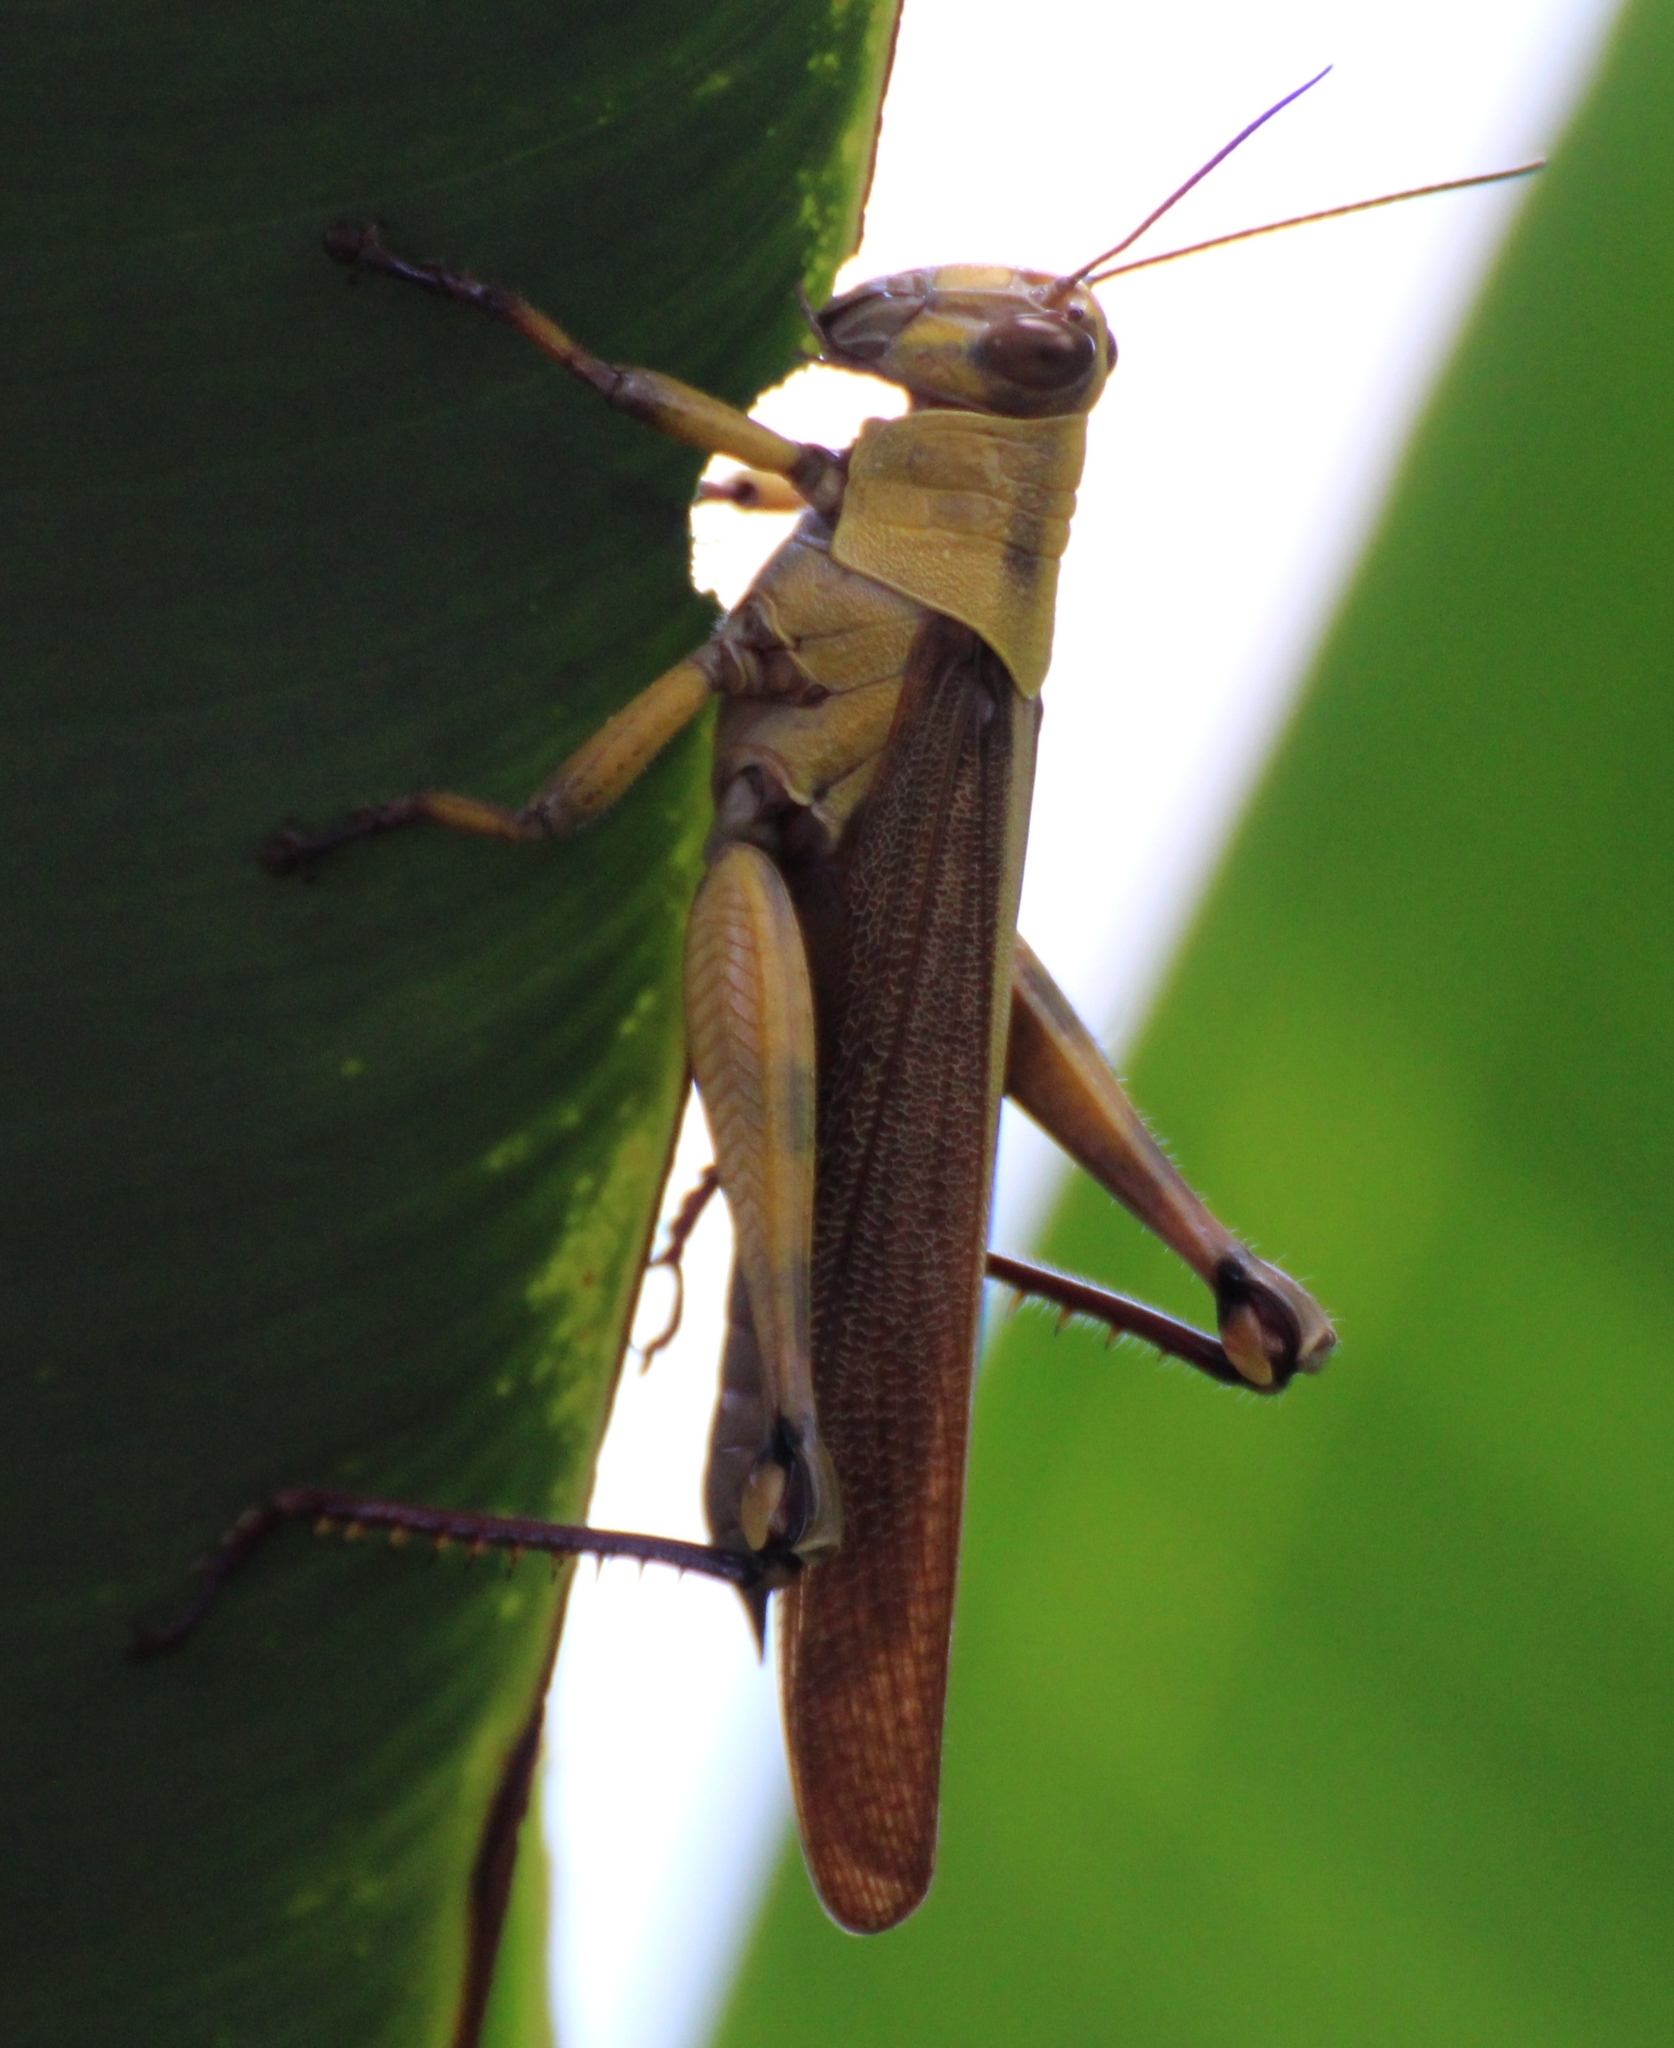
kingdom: Animalia
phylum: Arthropoda
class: Insecta
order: Orthoptera
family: Acrididae
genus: Valanga
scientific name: Valanga nigricornis
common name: Javanese bird grasshopper
